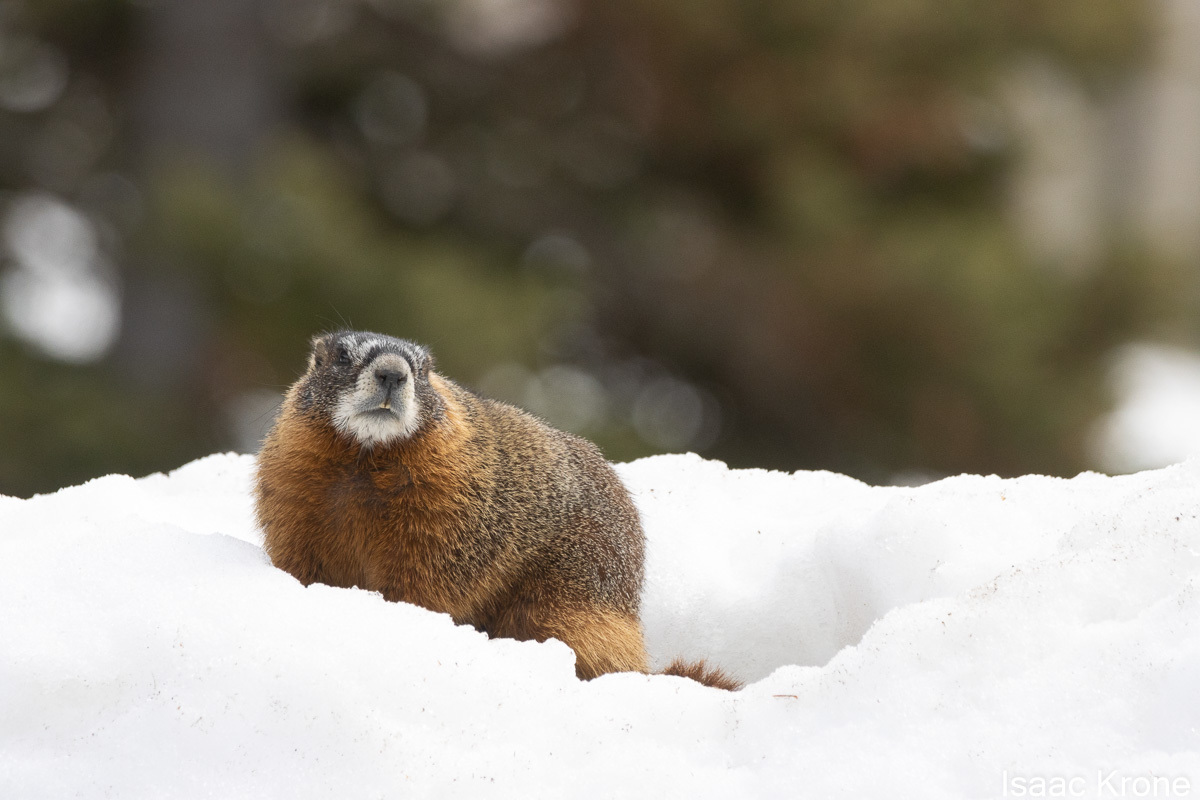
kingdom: Animalia
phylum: Chordata
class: Mammalia
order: Rodentia
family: Sciuridae
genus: Marmota
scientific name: Marmota flaviventris
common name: Yellow-bellied marmot
